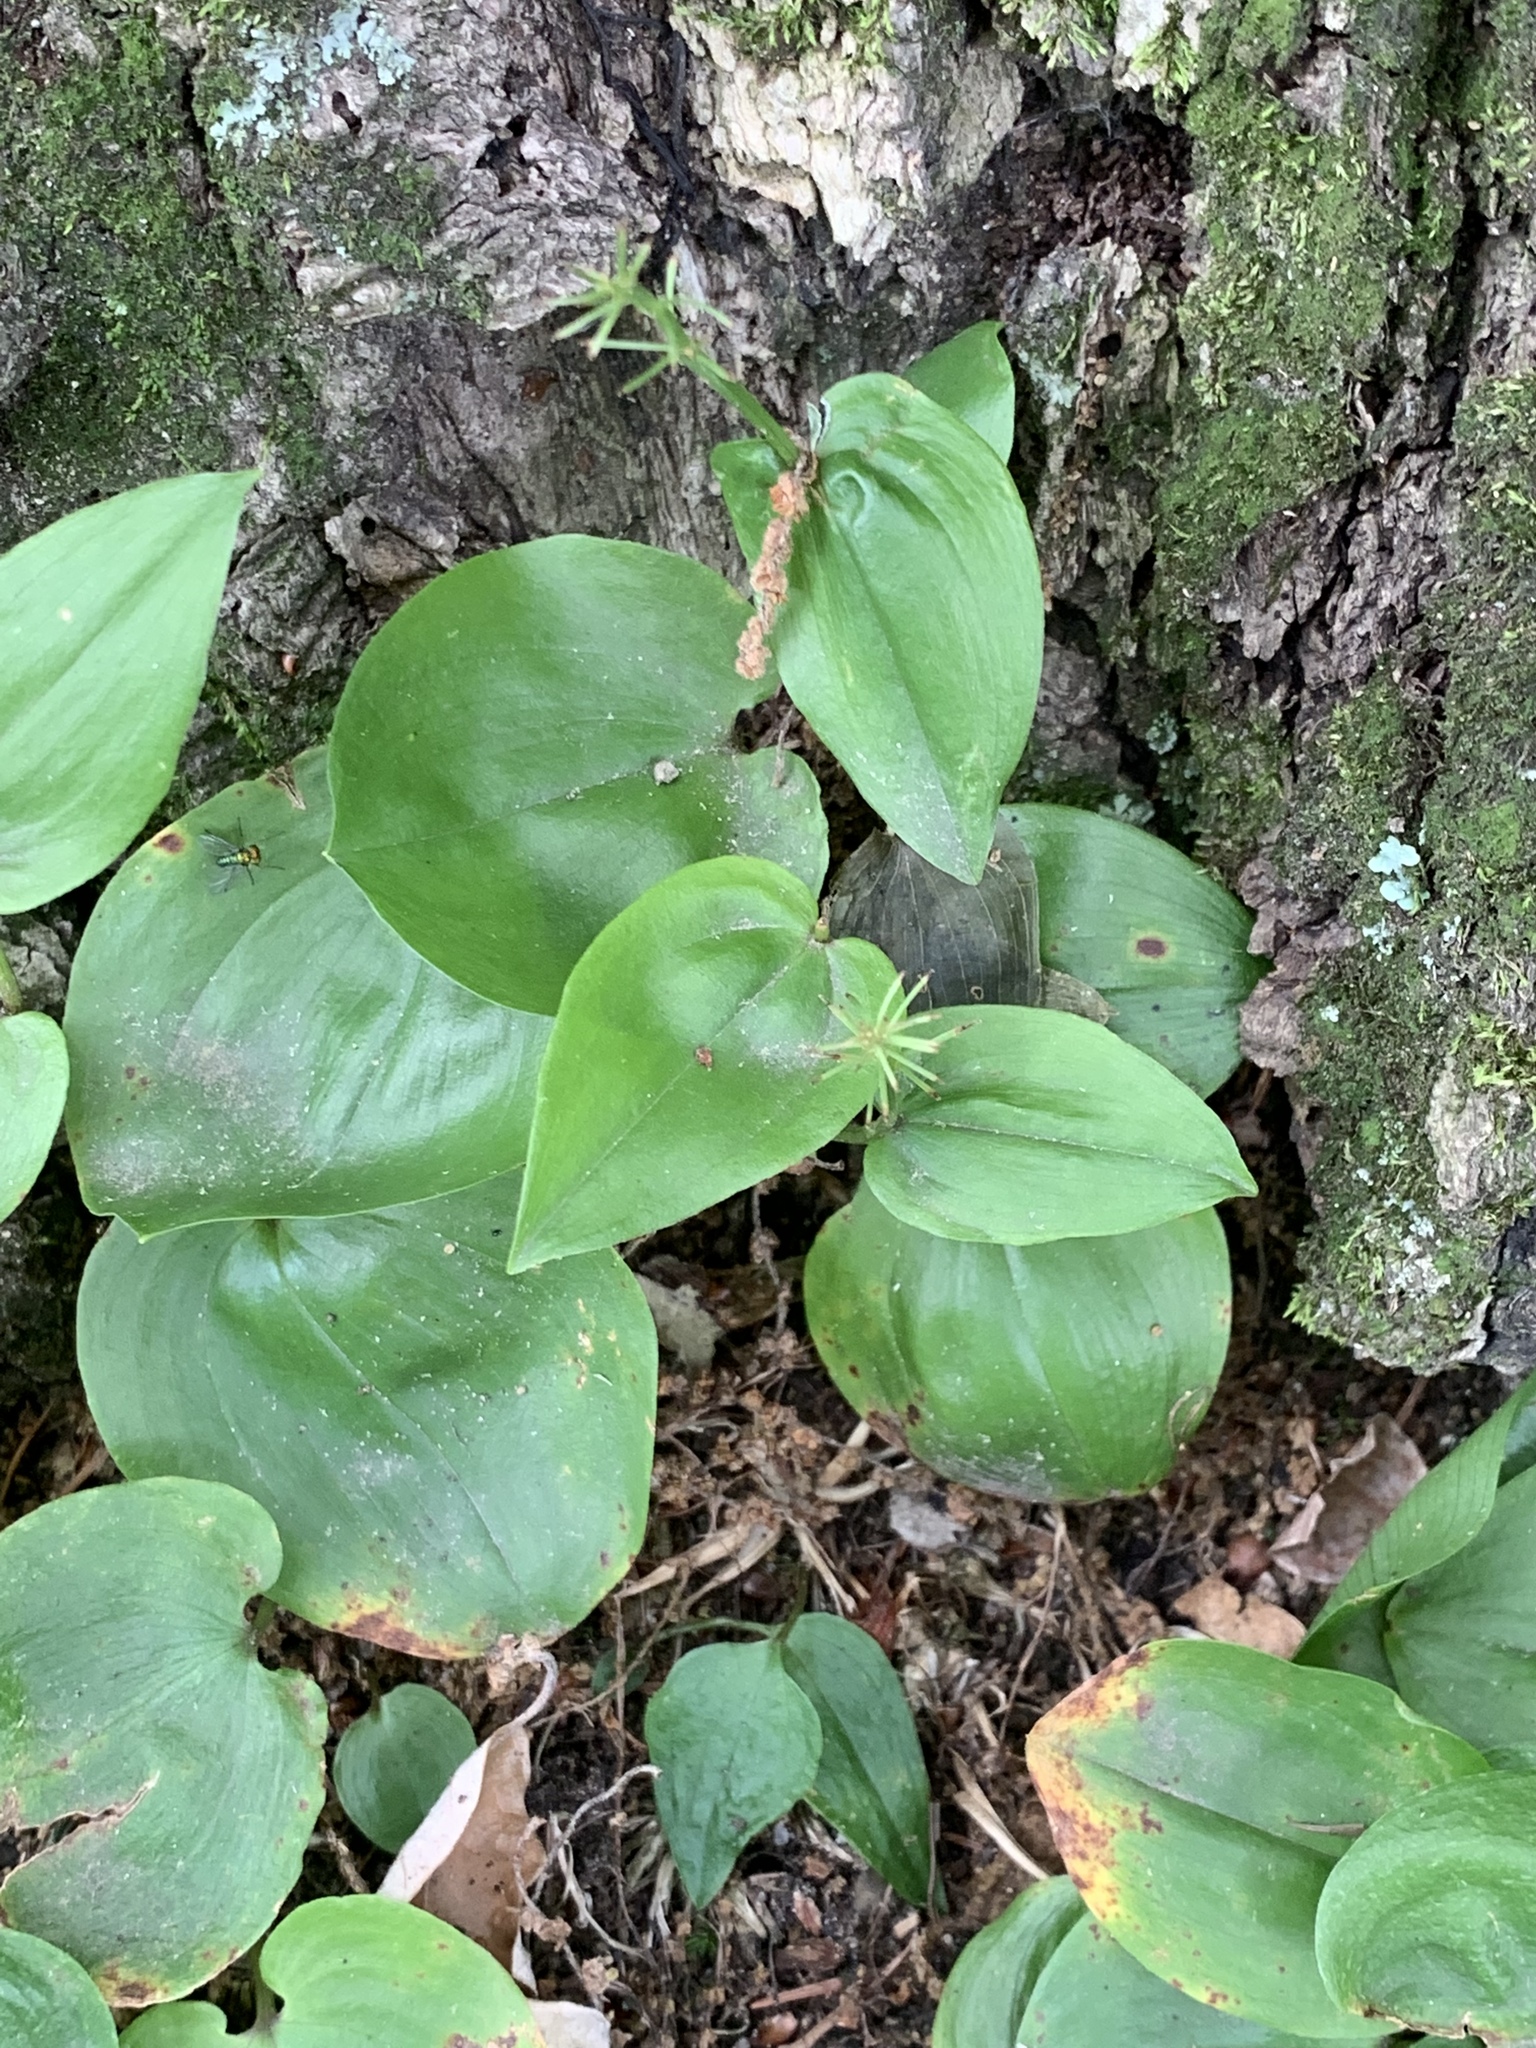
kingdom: Plantae
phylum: Tracheophyta
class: Liliopsida
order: Asparagales
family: Asparagaceae
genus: Maianthemum
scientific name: Maianthemum canadense
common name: False lily-of-the-valley
